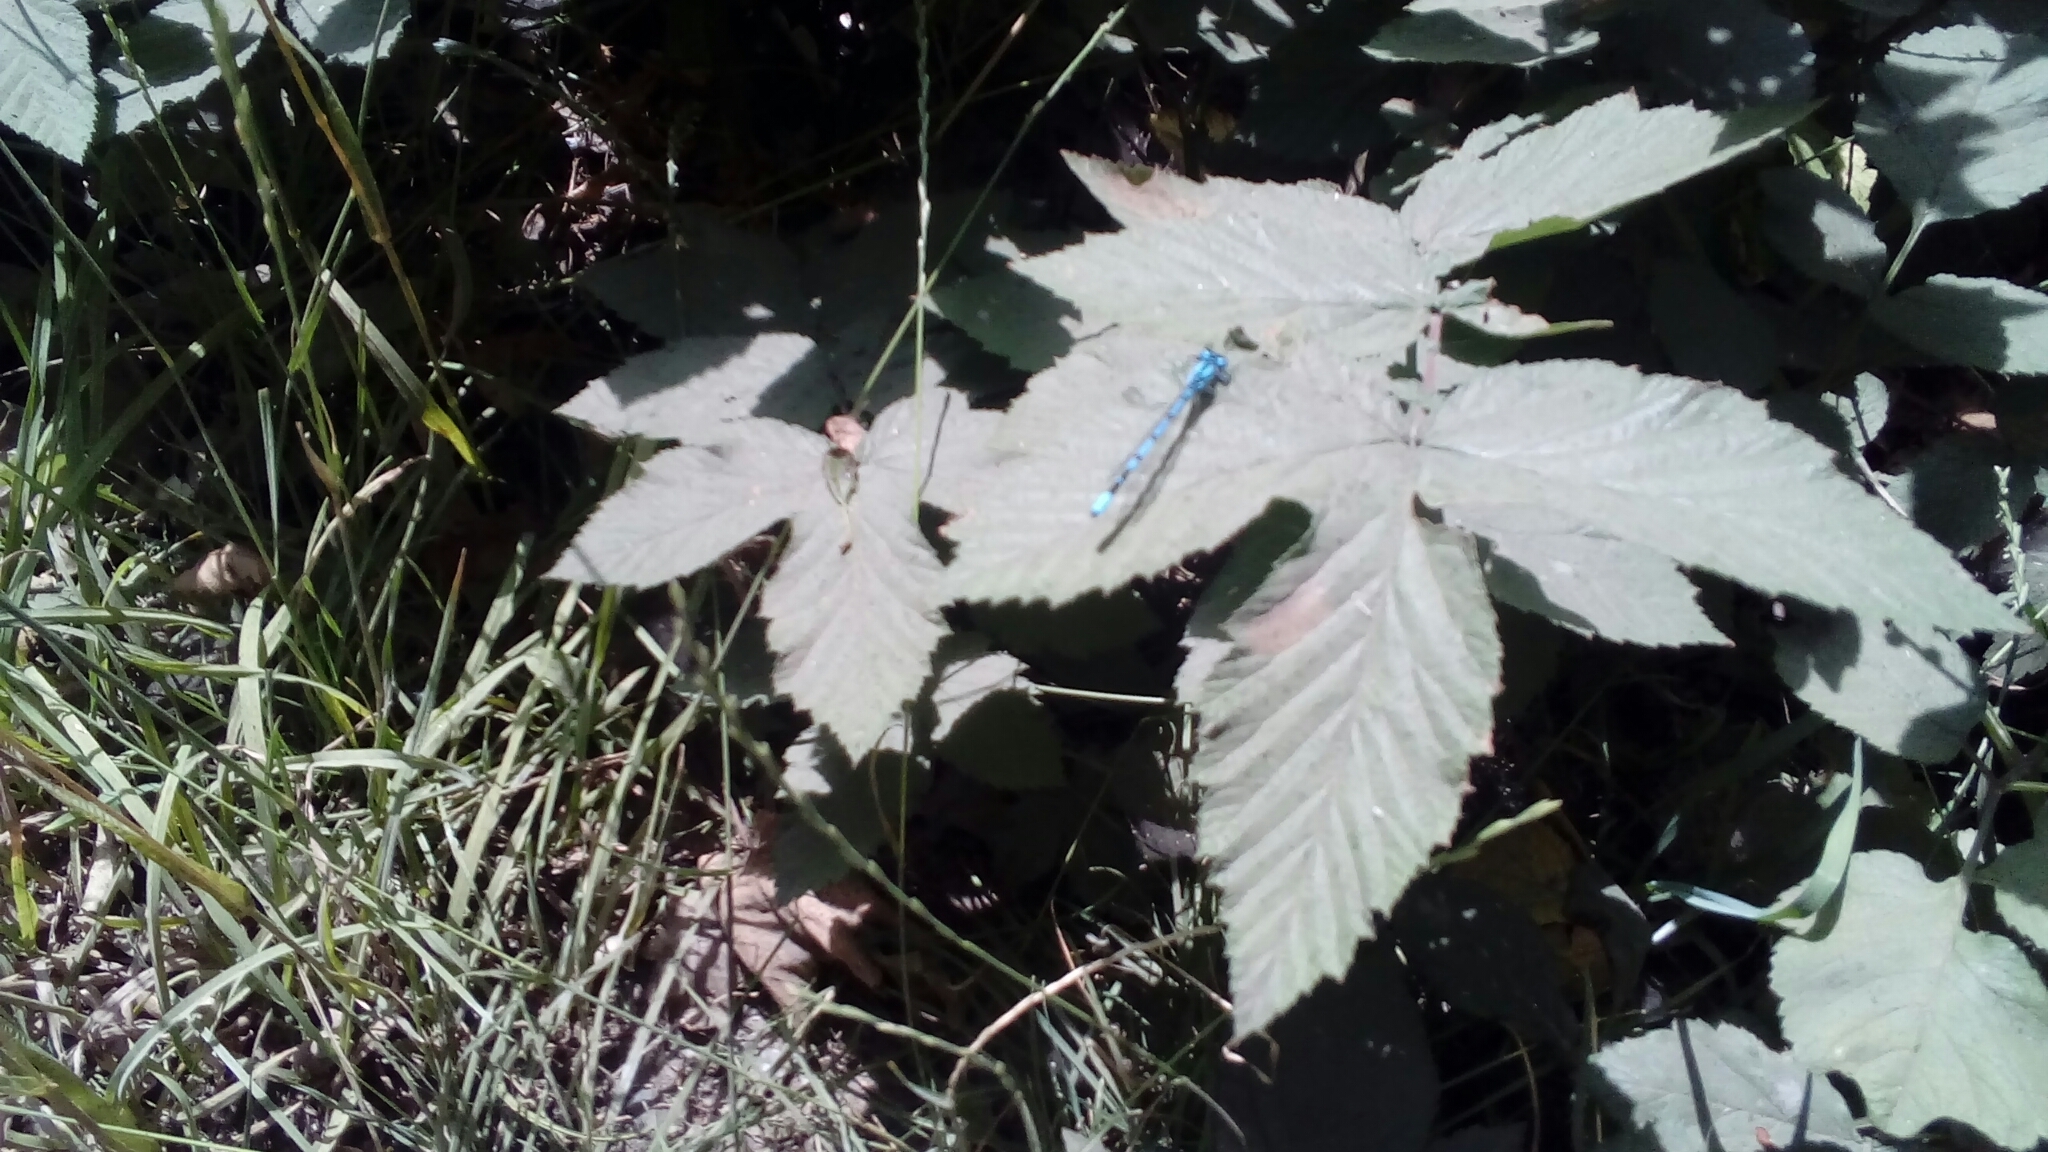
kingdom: Animalia
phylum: Arthropoda
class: Insecta
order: Odonata
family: Coenagrionidae
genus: Enallagma
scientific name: Enallagma cyathigerum
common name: Common blue damselfly
